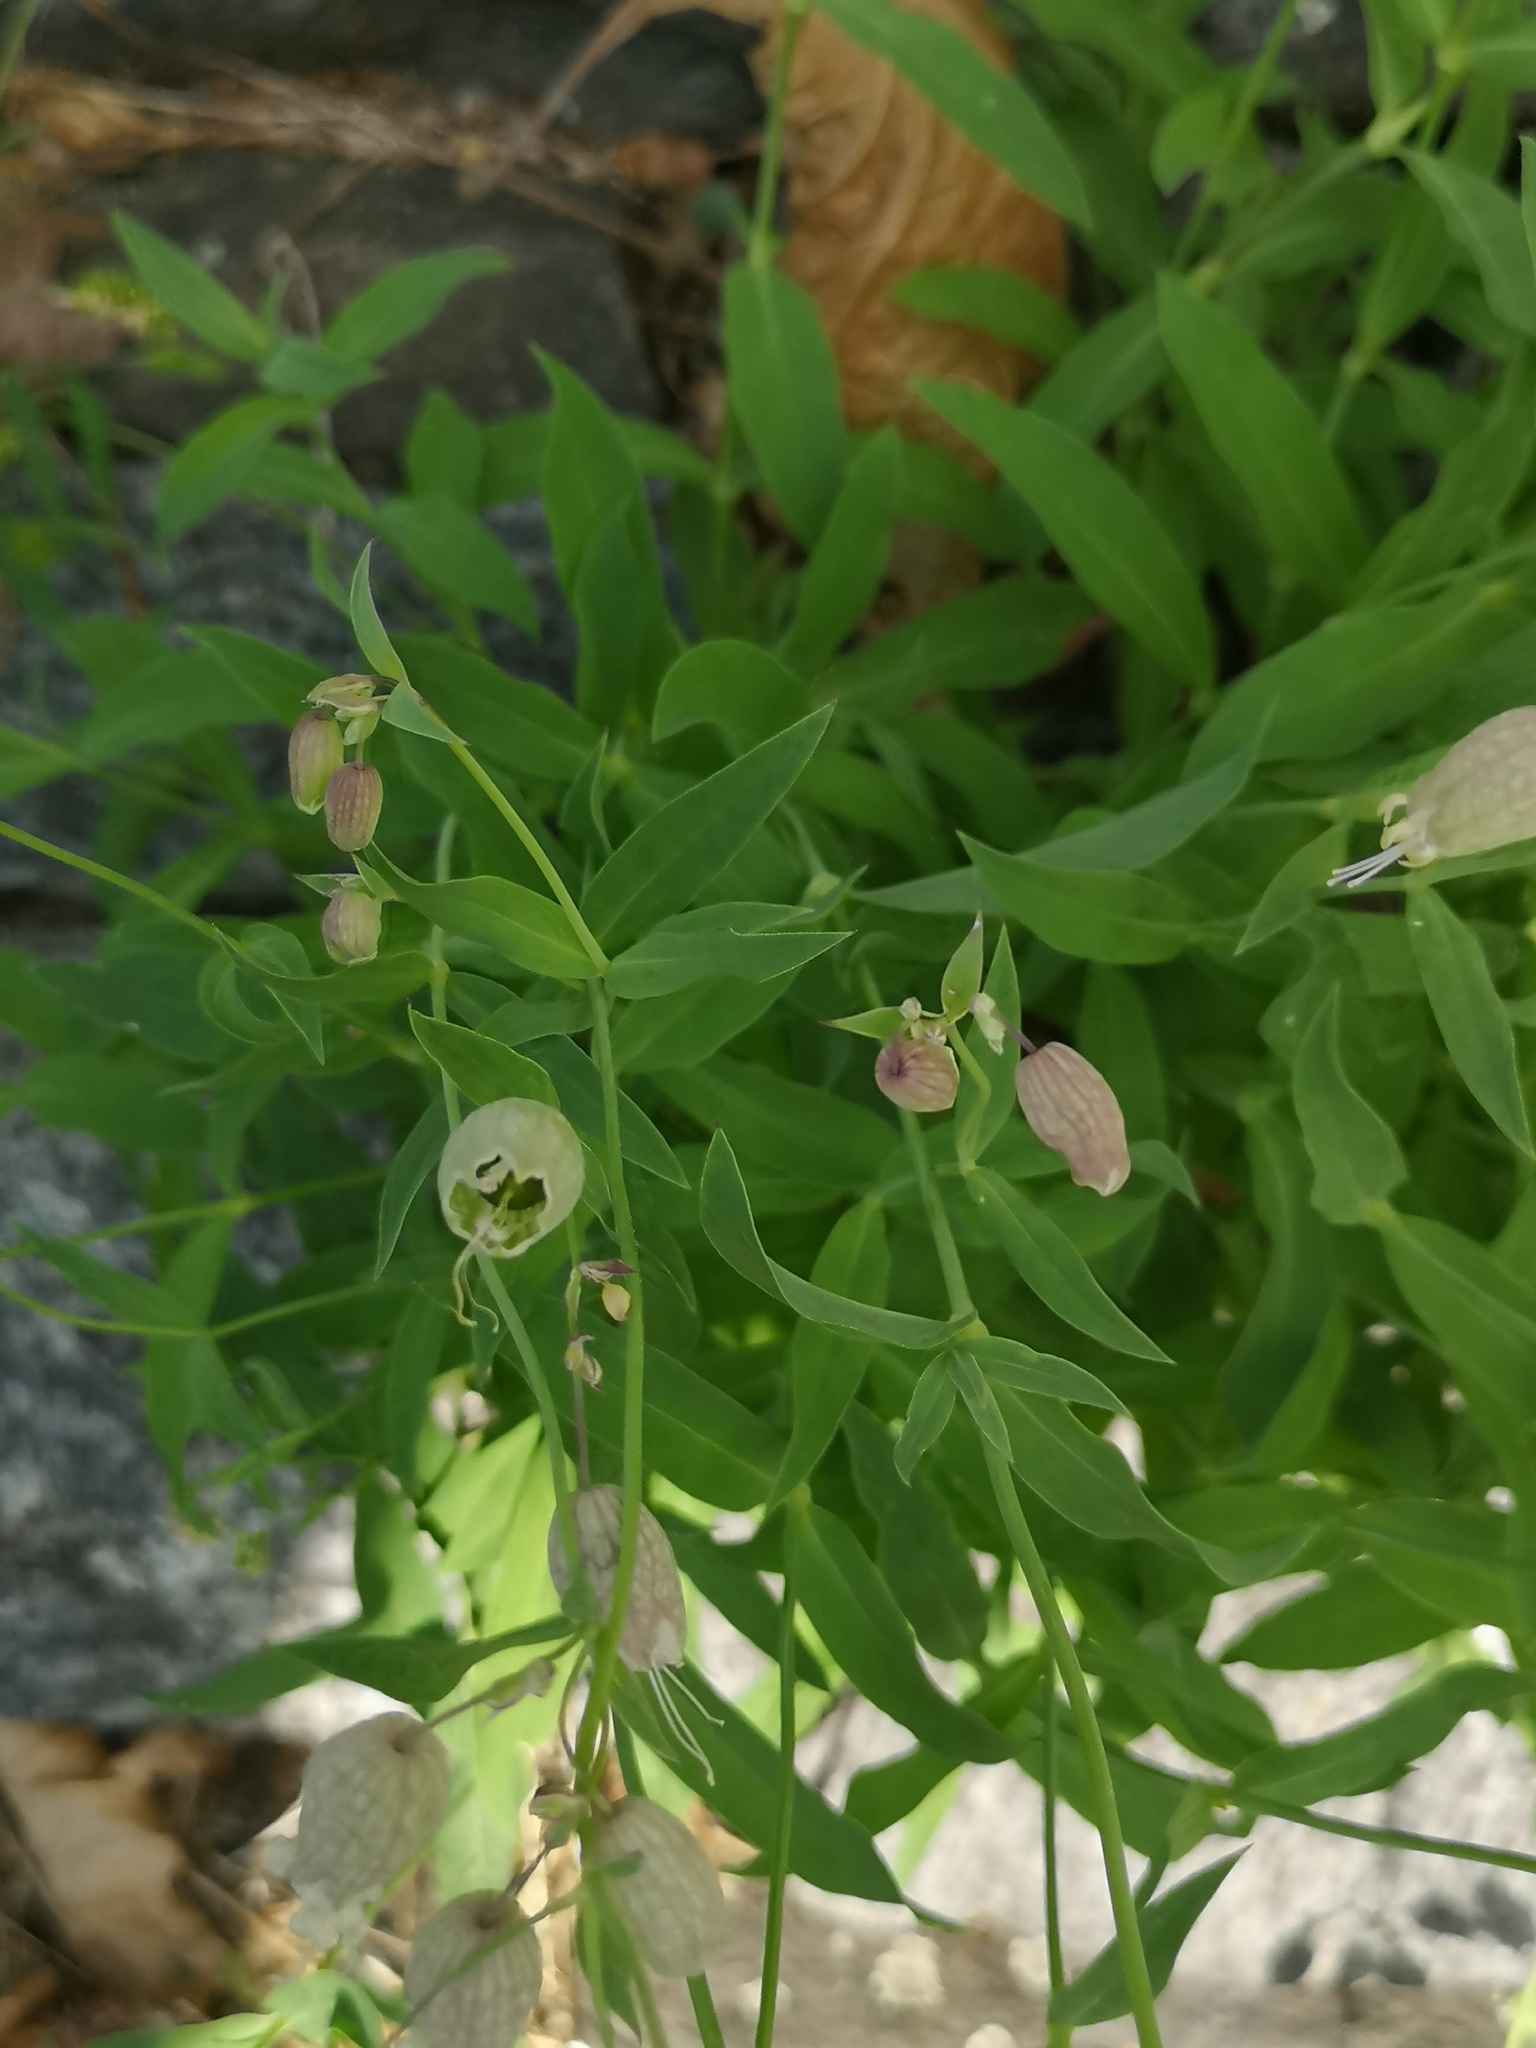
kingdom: Plantae
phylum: Tracheophyta
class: Magnoliopsida
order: Caryophyllales
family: Caryophyllaceae
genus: Silene
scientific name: Silene vulgaris
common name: Bladder campion
